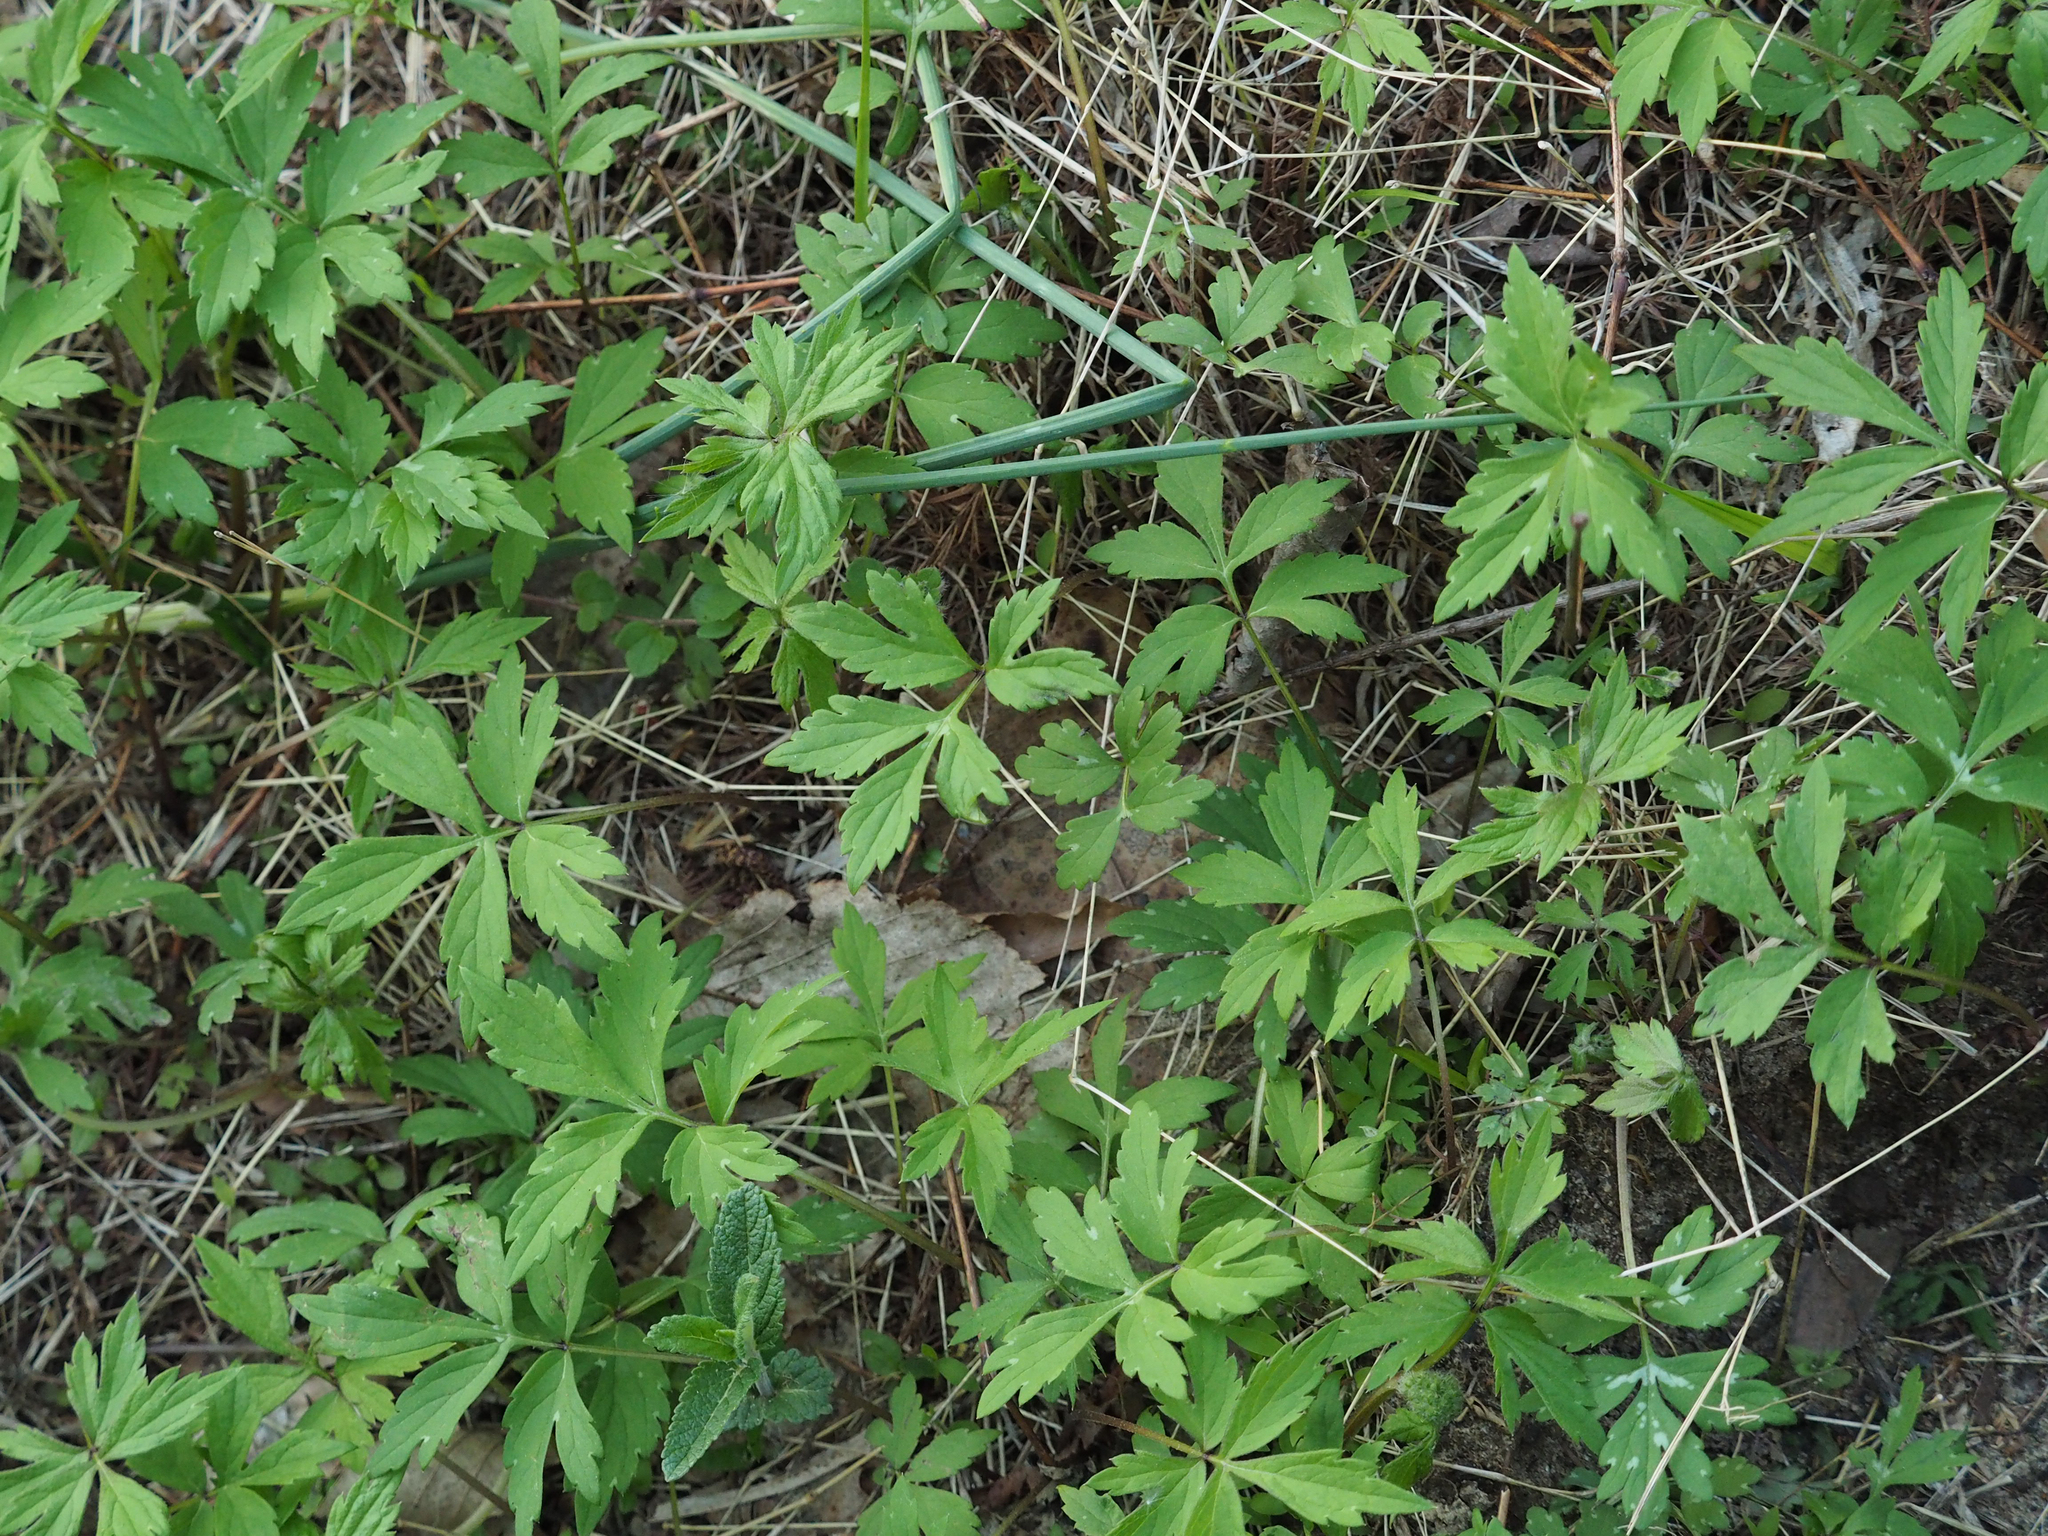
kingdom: Plantae
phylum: Tracheophyta
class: Magnoliopsida
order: Boraginales
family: Hydrophyllaceae
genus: Hydrophyllum
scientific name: Hydrophyllum virginianum
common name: Virginia waterleaf
